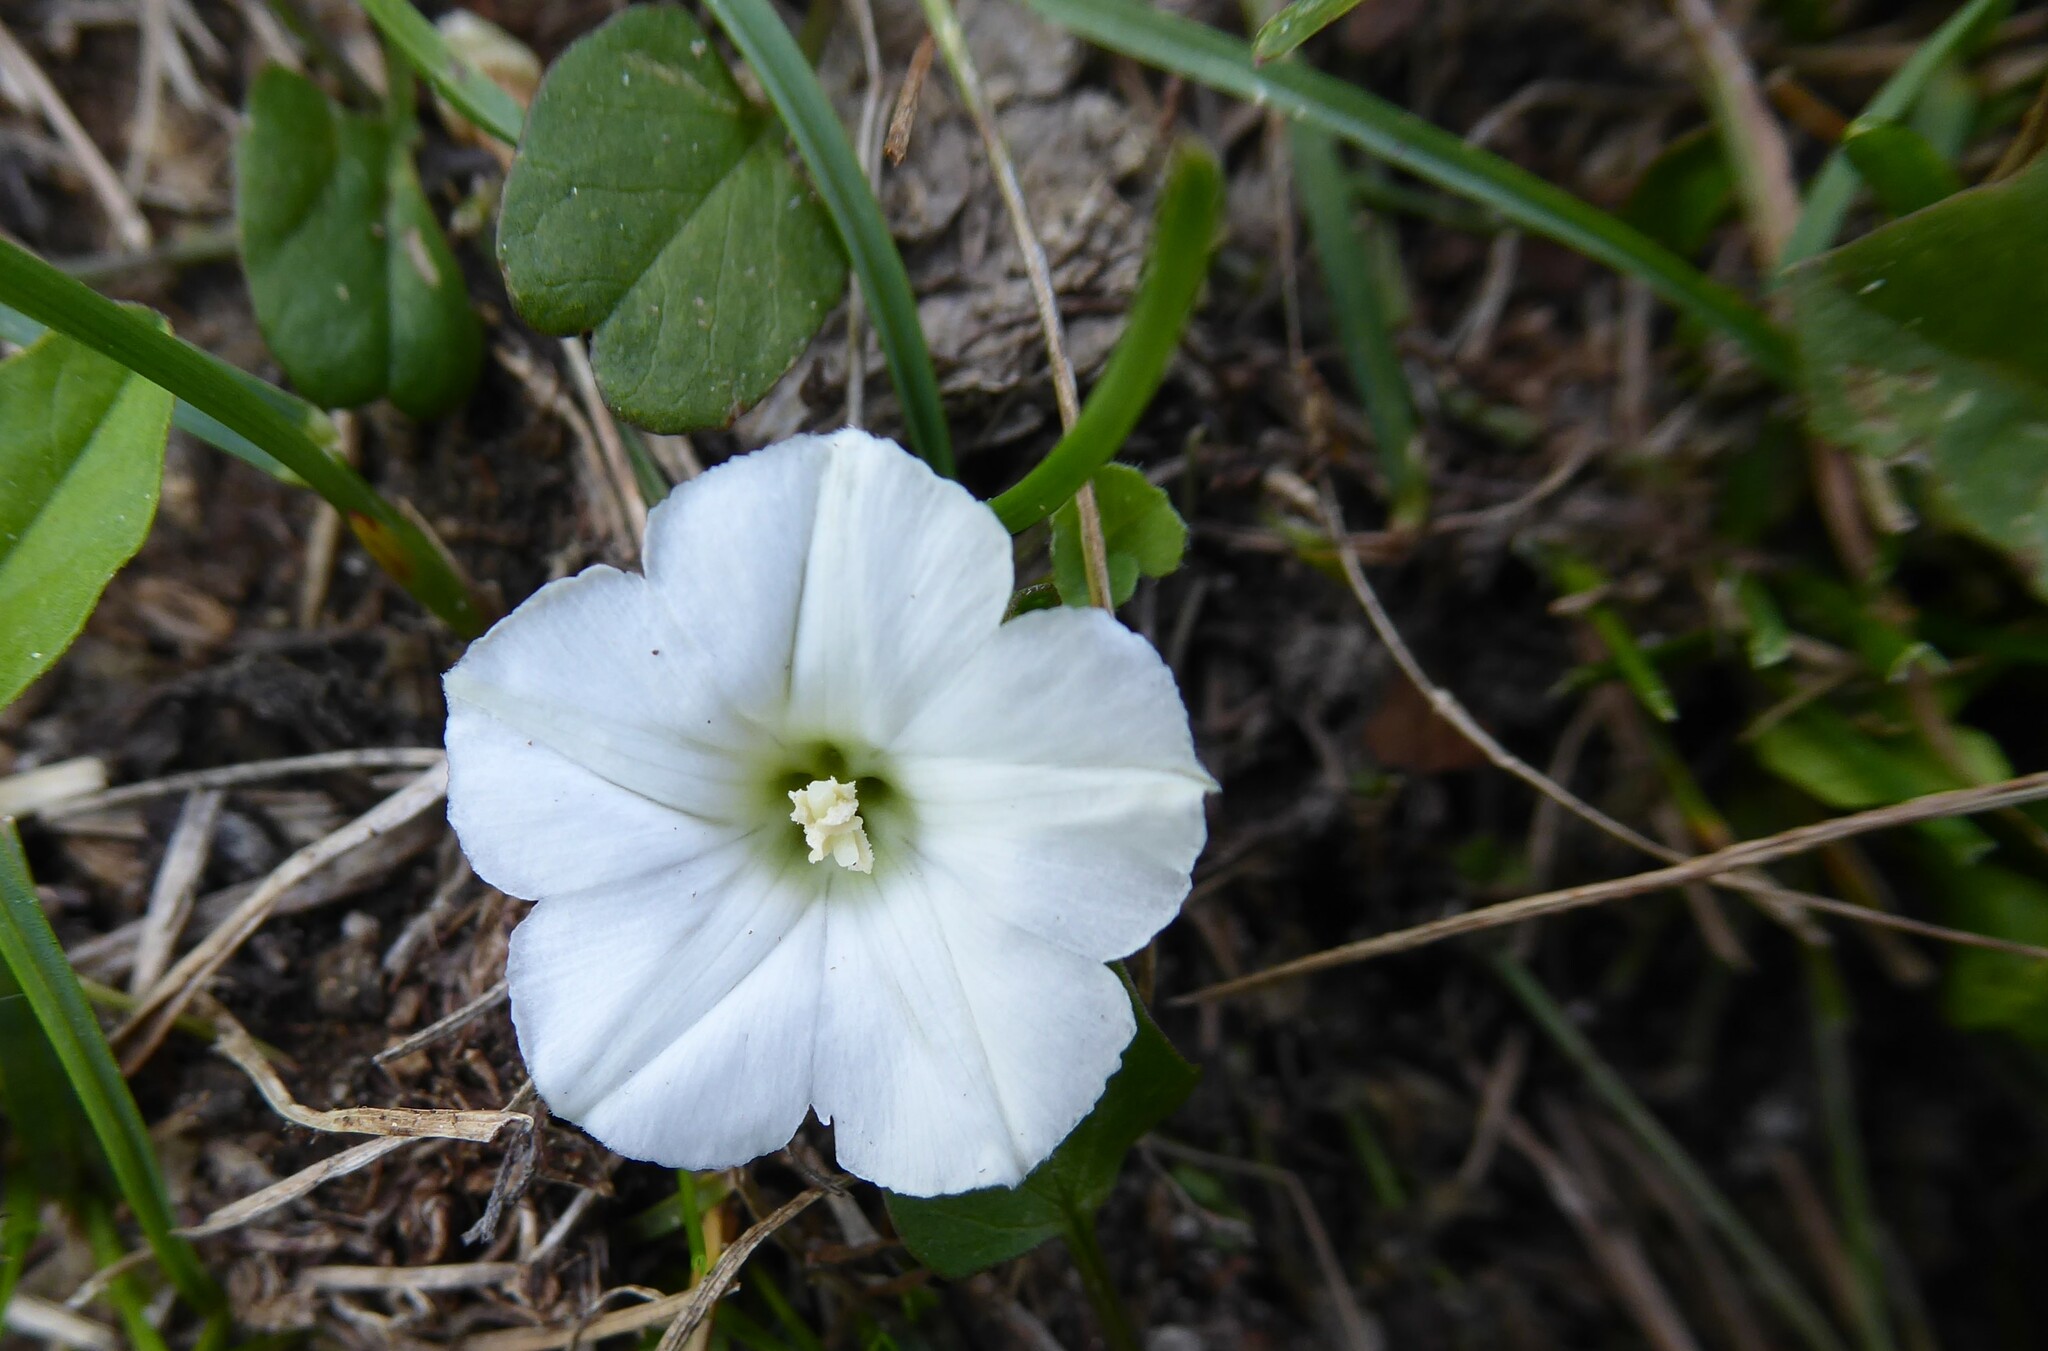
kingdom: Plantae
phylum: Tracheophyta
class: Magnoliopsida
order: Solanales
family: Convolvulaceae
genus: Convolvulus
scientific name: Convolvulus waitaha
